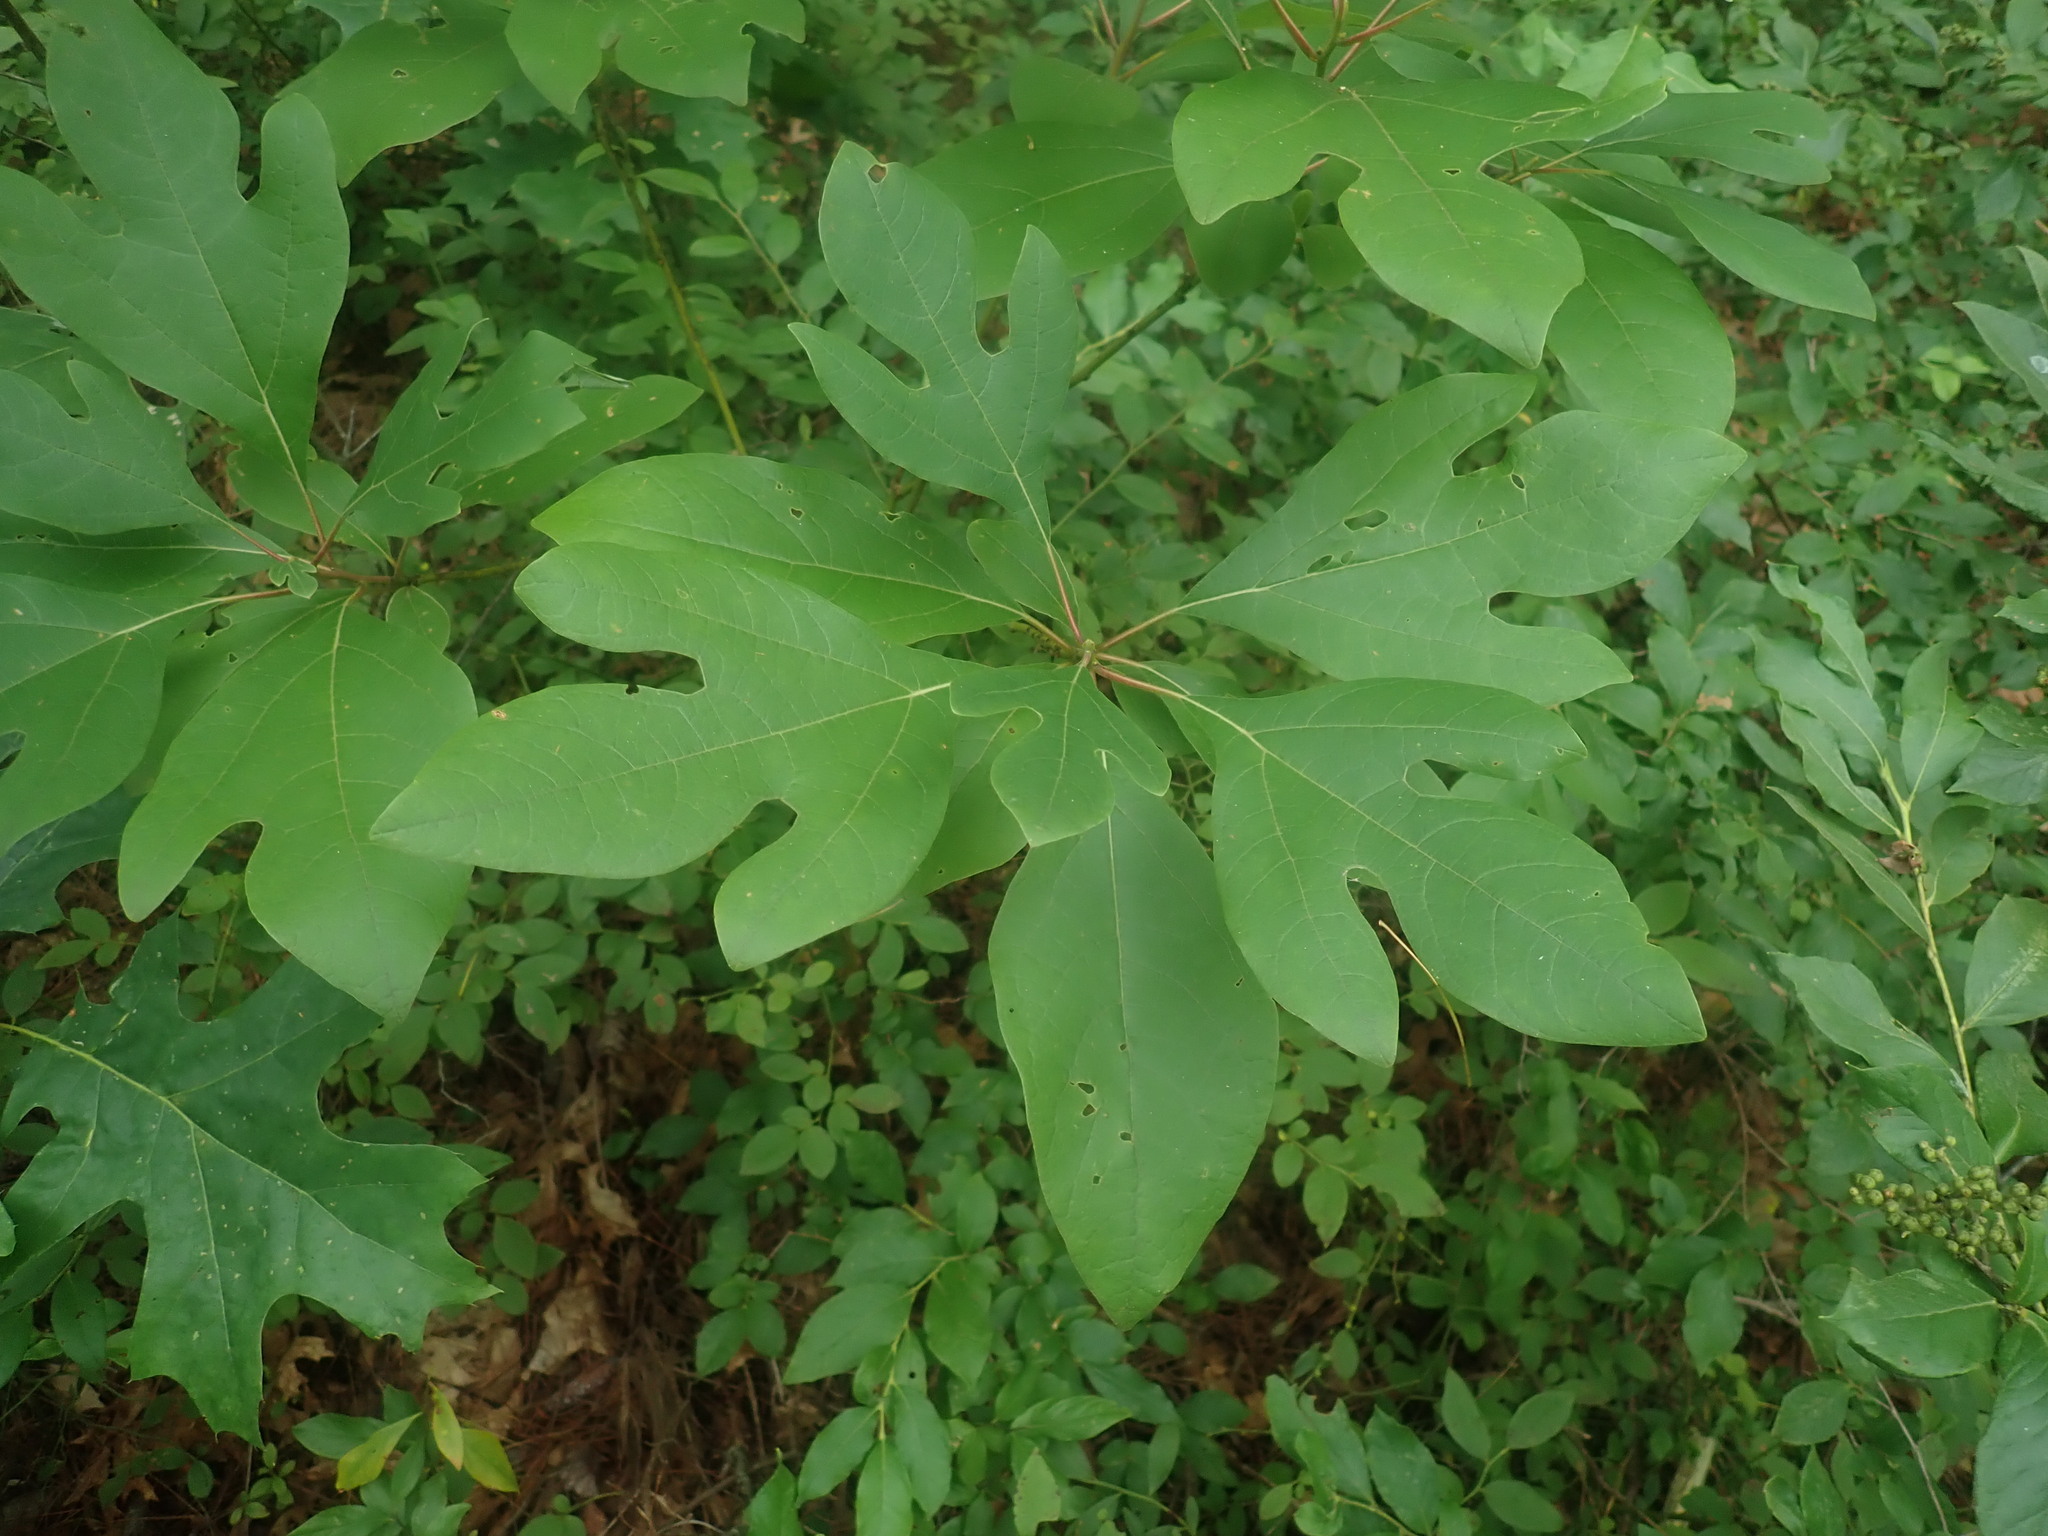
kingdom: Plantae
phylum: Tracheophyta
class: Magnoliopsida
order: Laurales
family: Lauraceae
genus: Sassafras
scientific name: Sassafras albidum
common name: Sassafras
